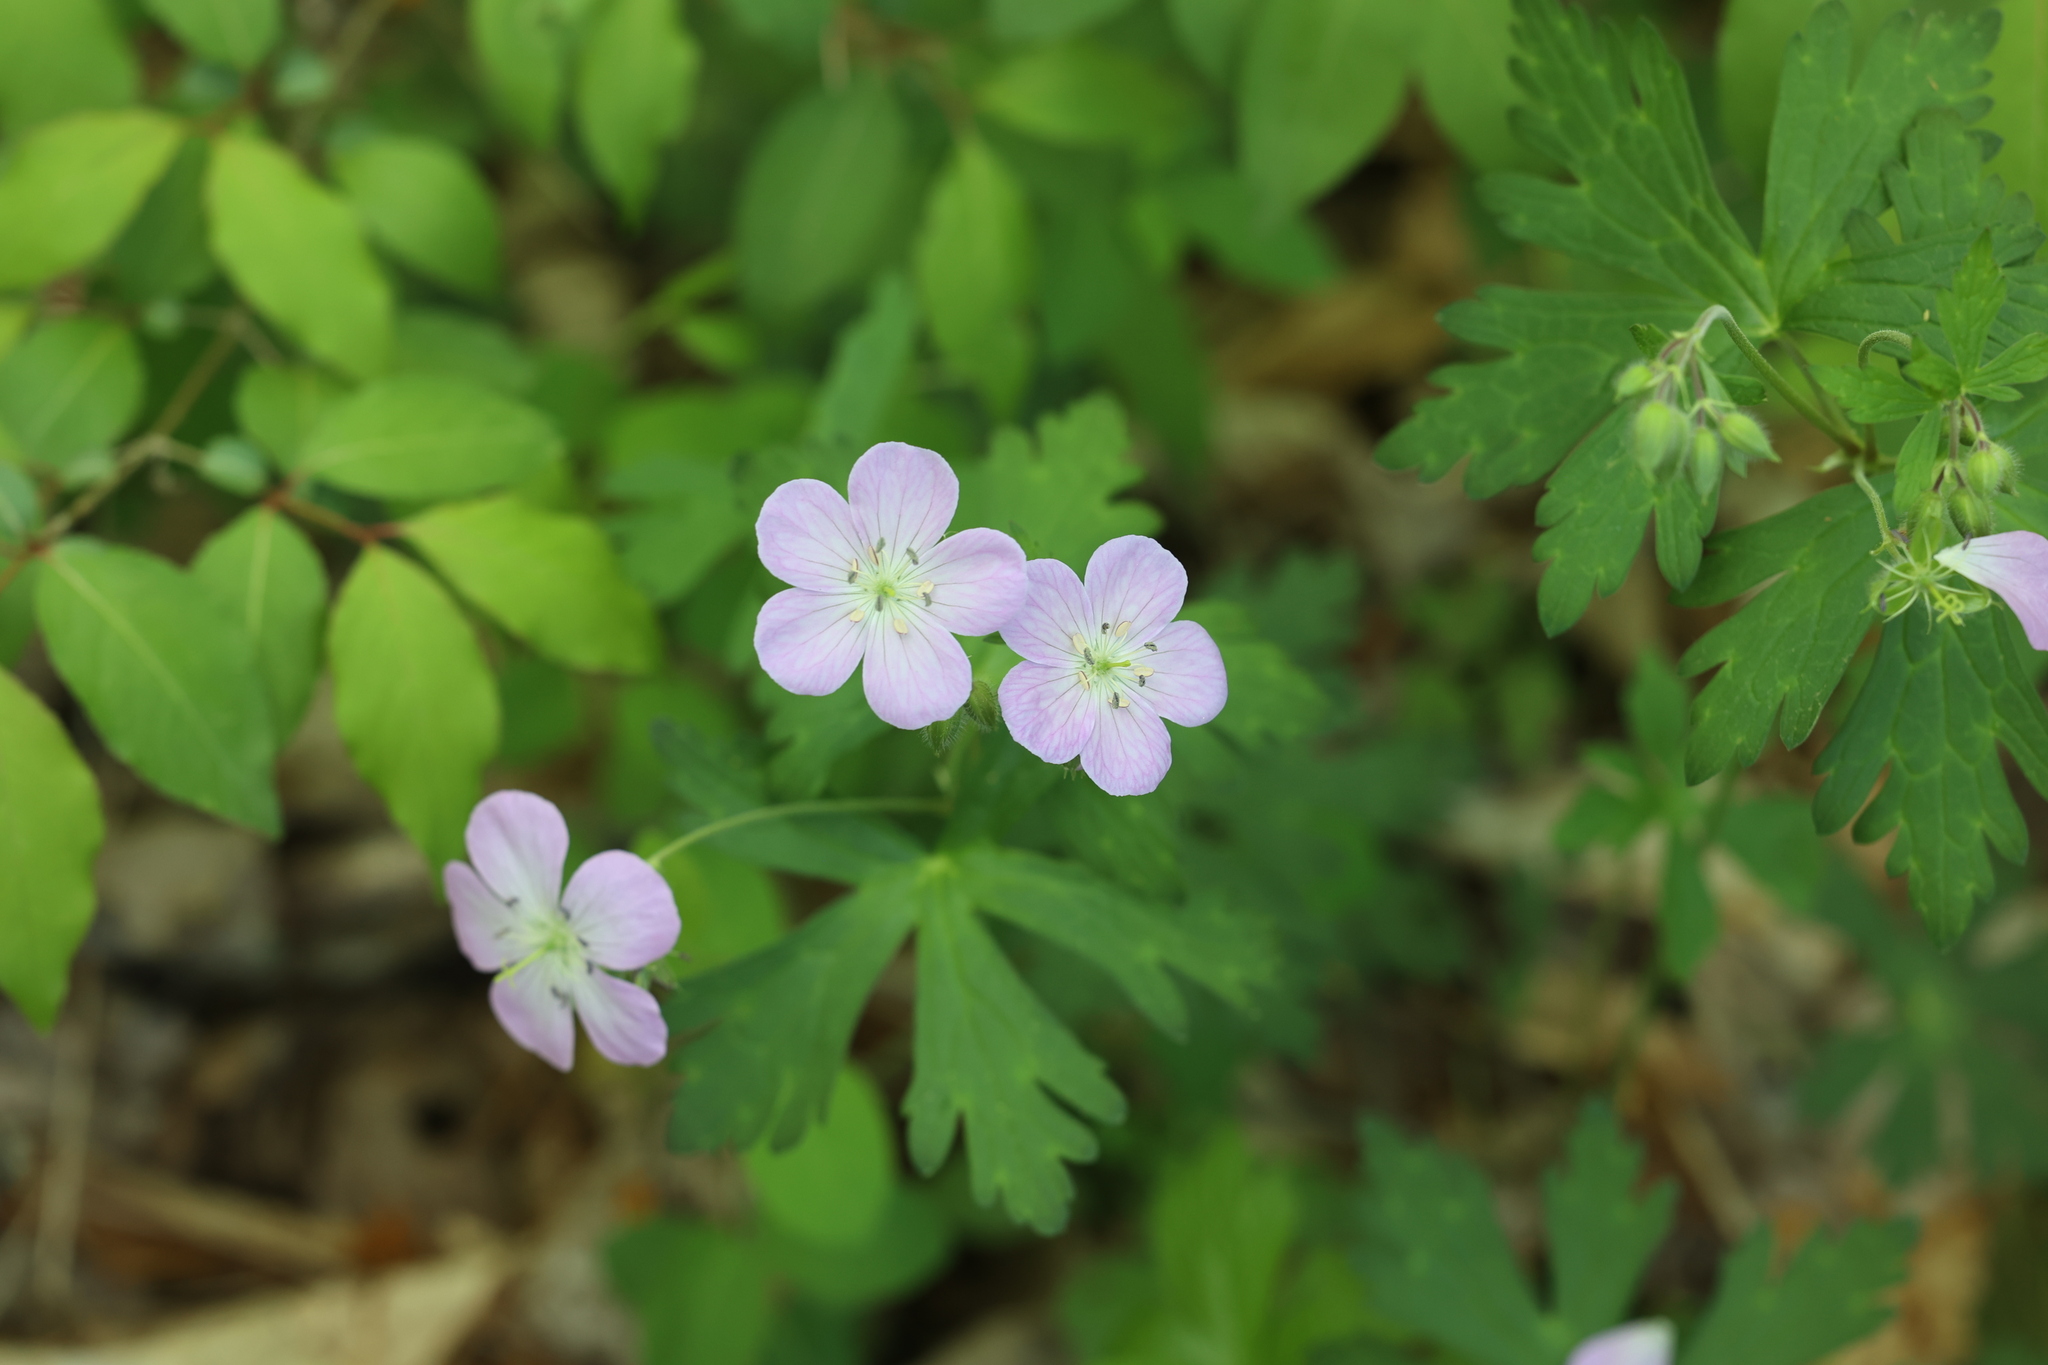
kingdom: Plantae
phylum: Tracheophyta
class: Magnoliopsida
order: Geraniales
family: Geraniaceae
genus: Geranium
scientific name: Geranium maculatum
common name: Spotted geranium
